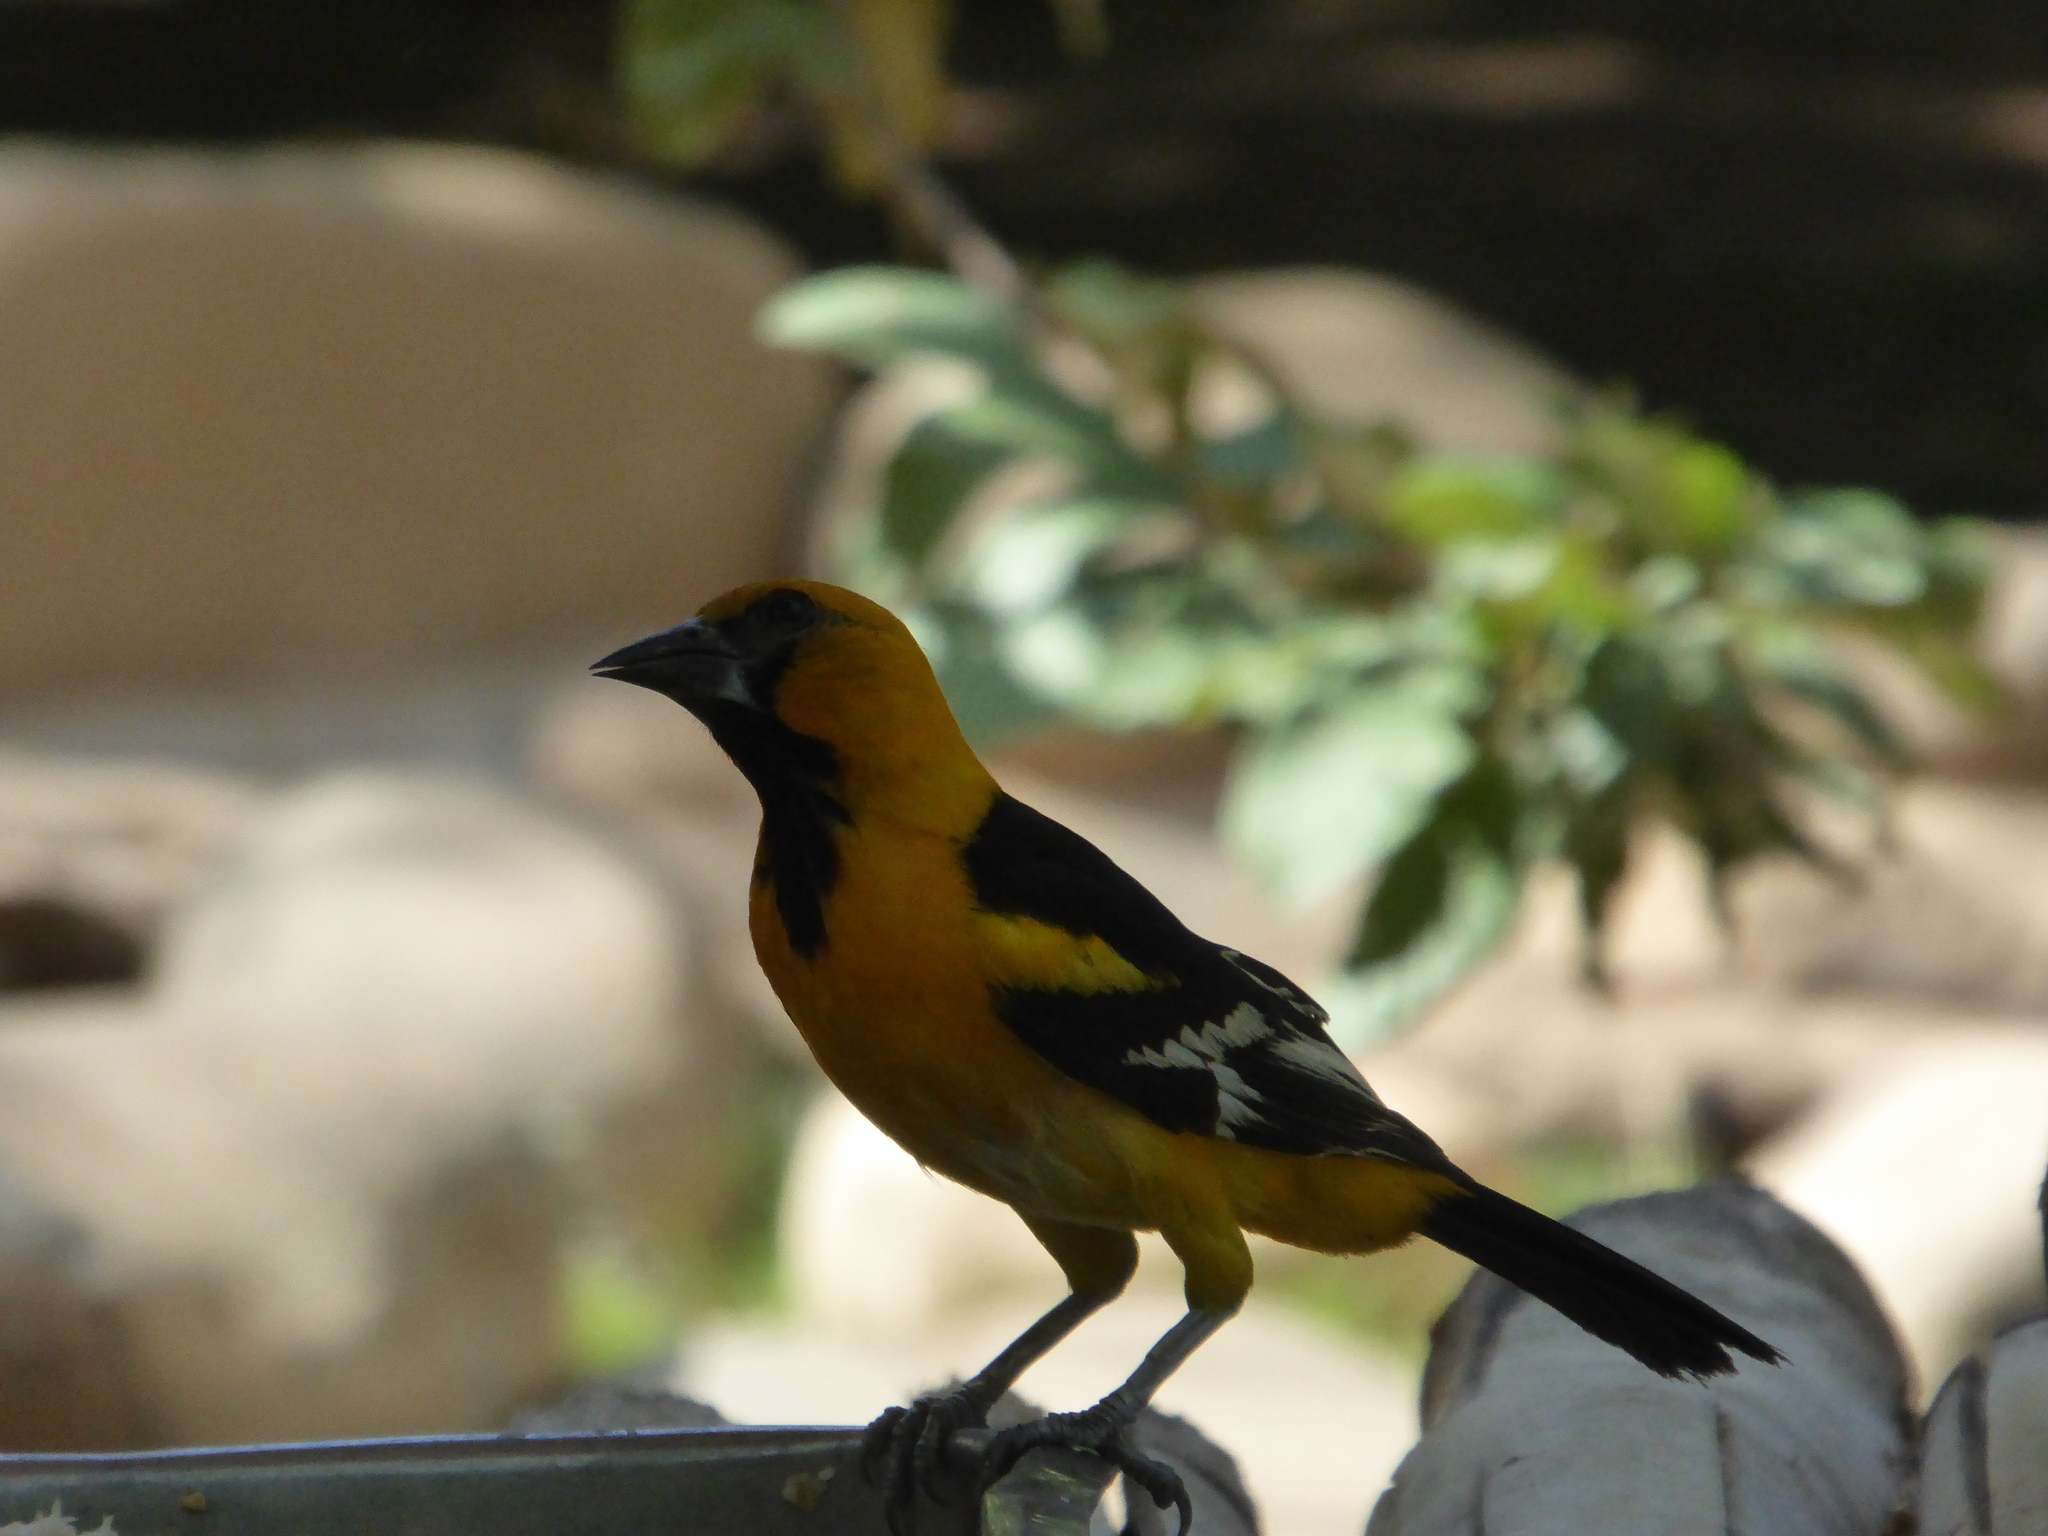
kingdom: Animalia
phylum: Chordata
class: Aves
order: Passeriformes
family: Icteridae
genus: Icterus
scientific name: Icterus gularis
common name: Altamira oriole
